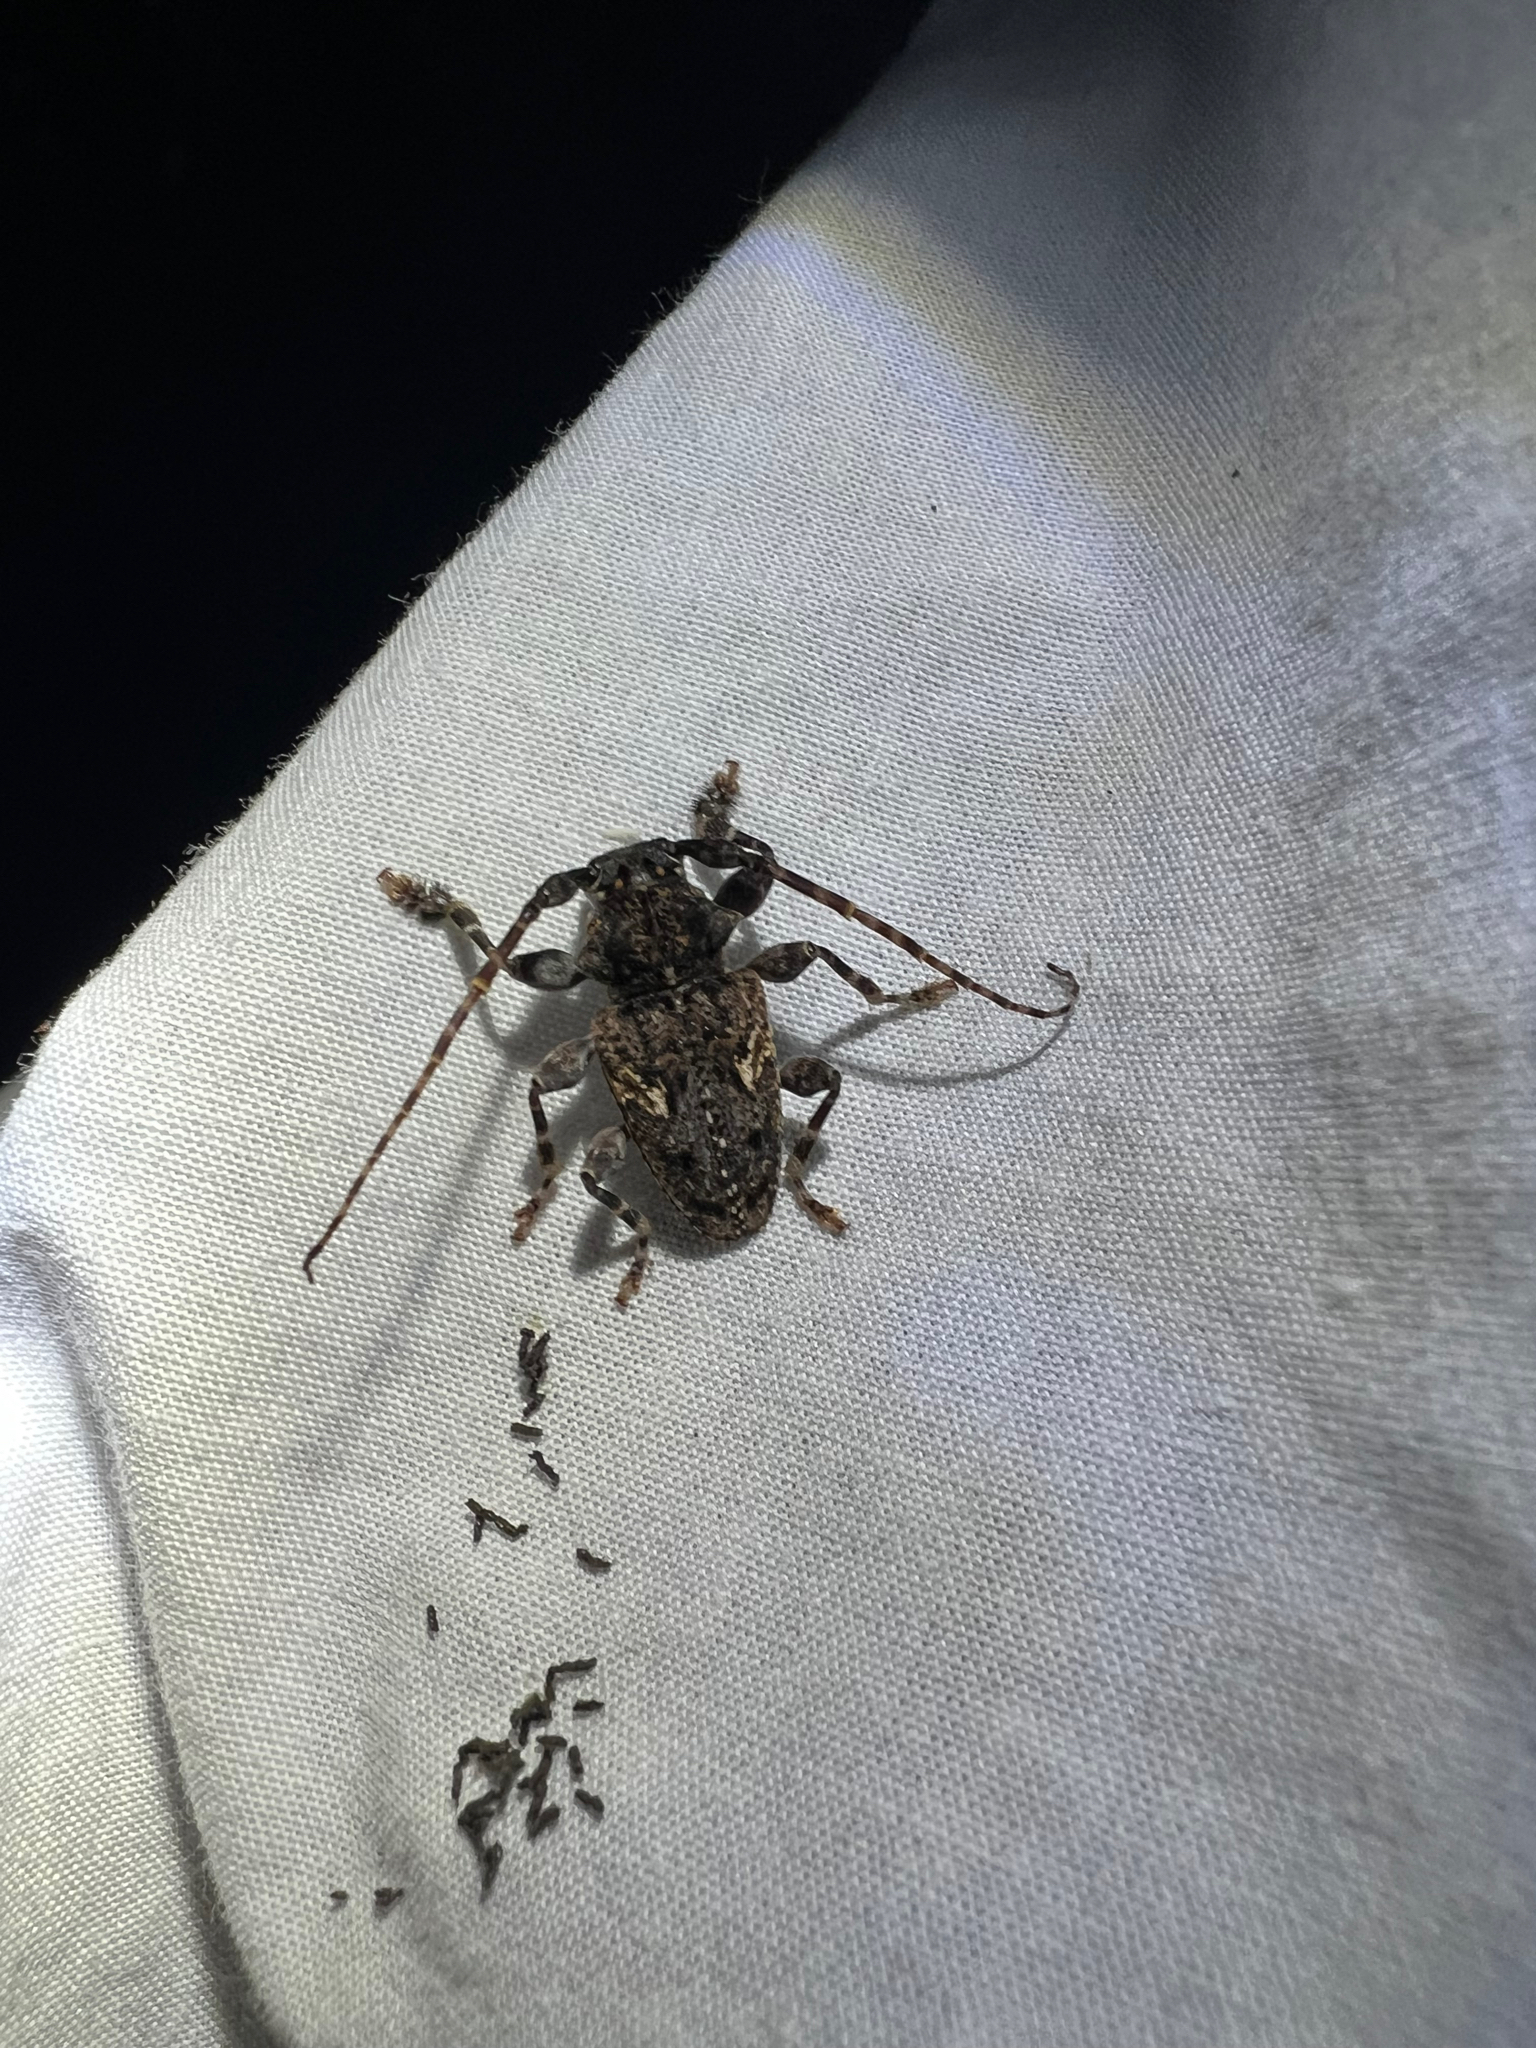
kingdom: Animalia
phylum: Arthropoda
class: Insecta
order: Coleoptera
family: Cerambycidae
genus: Psapharochrus
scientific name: Psapharochrus circumflexus
